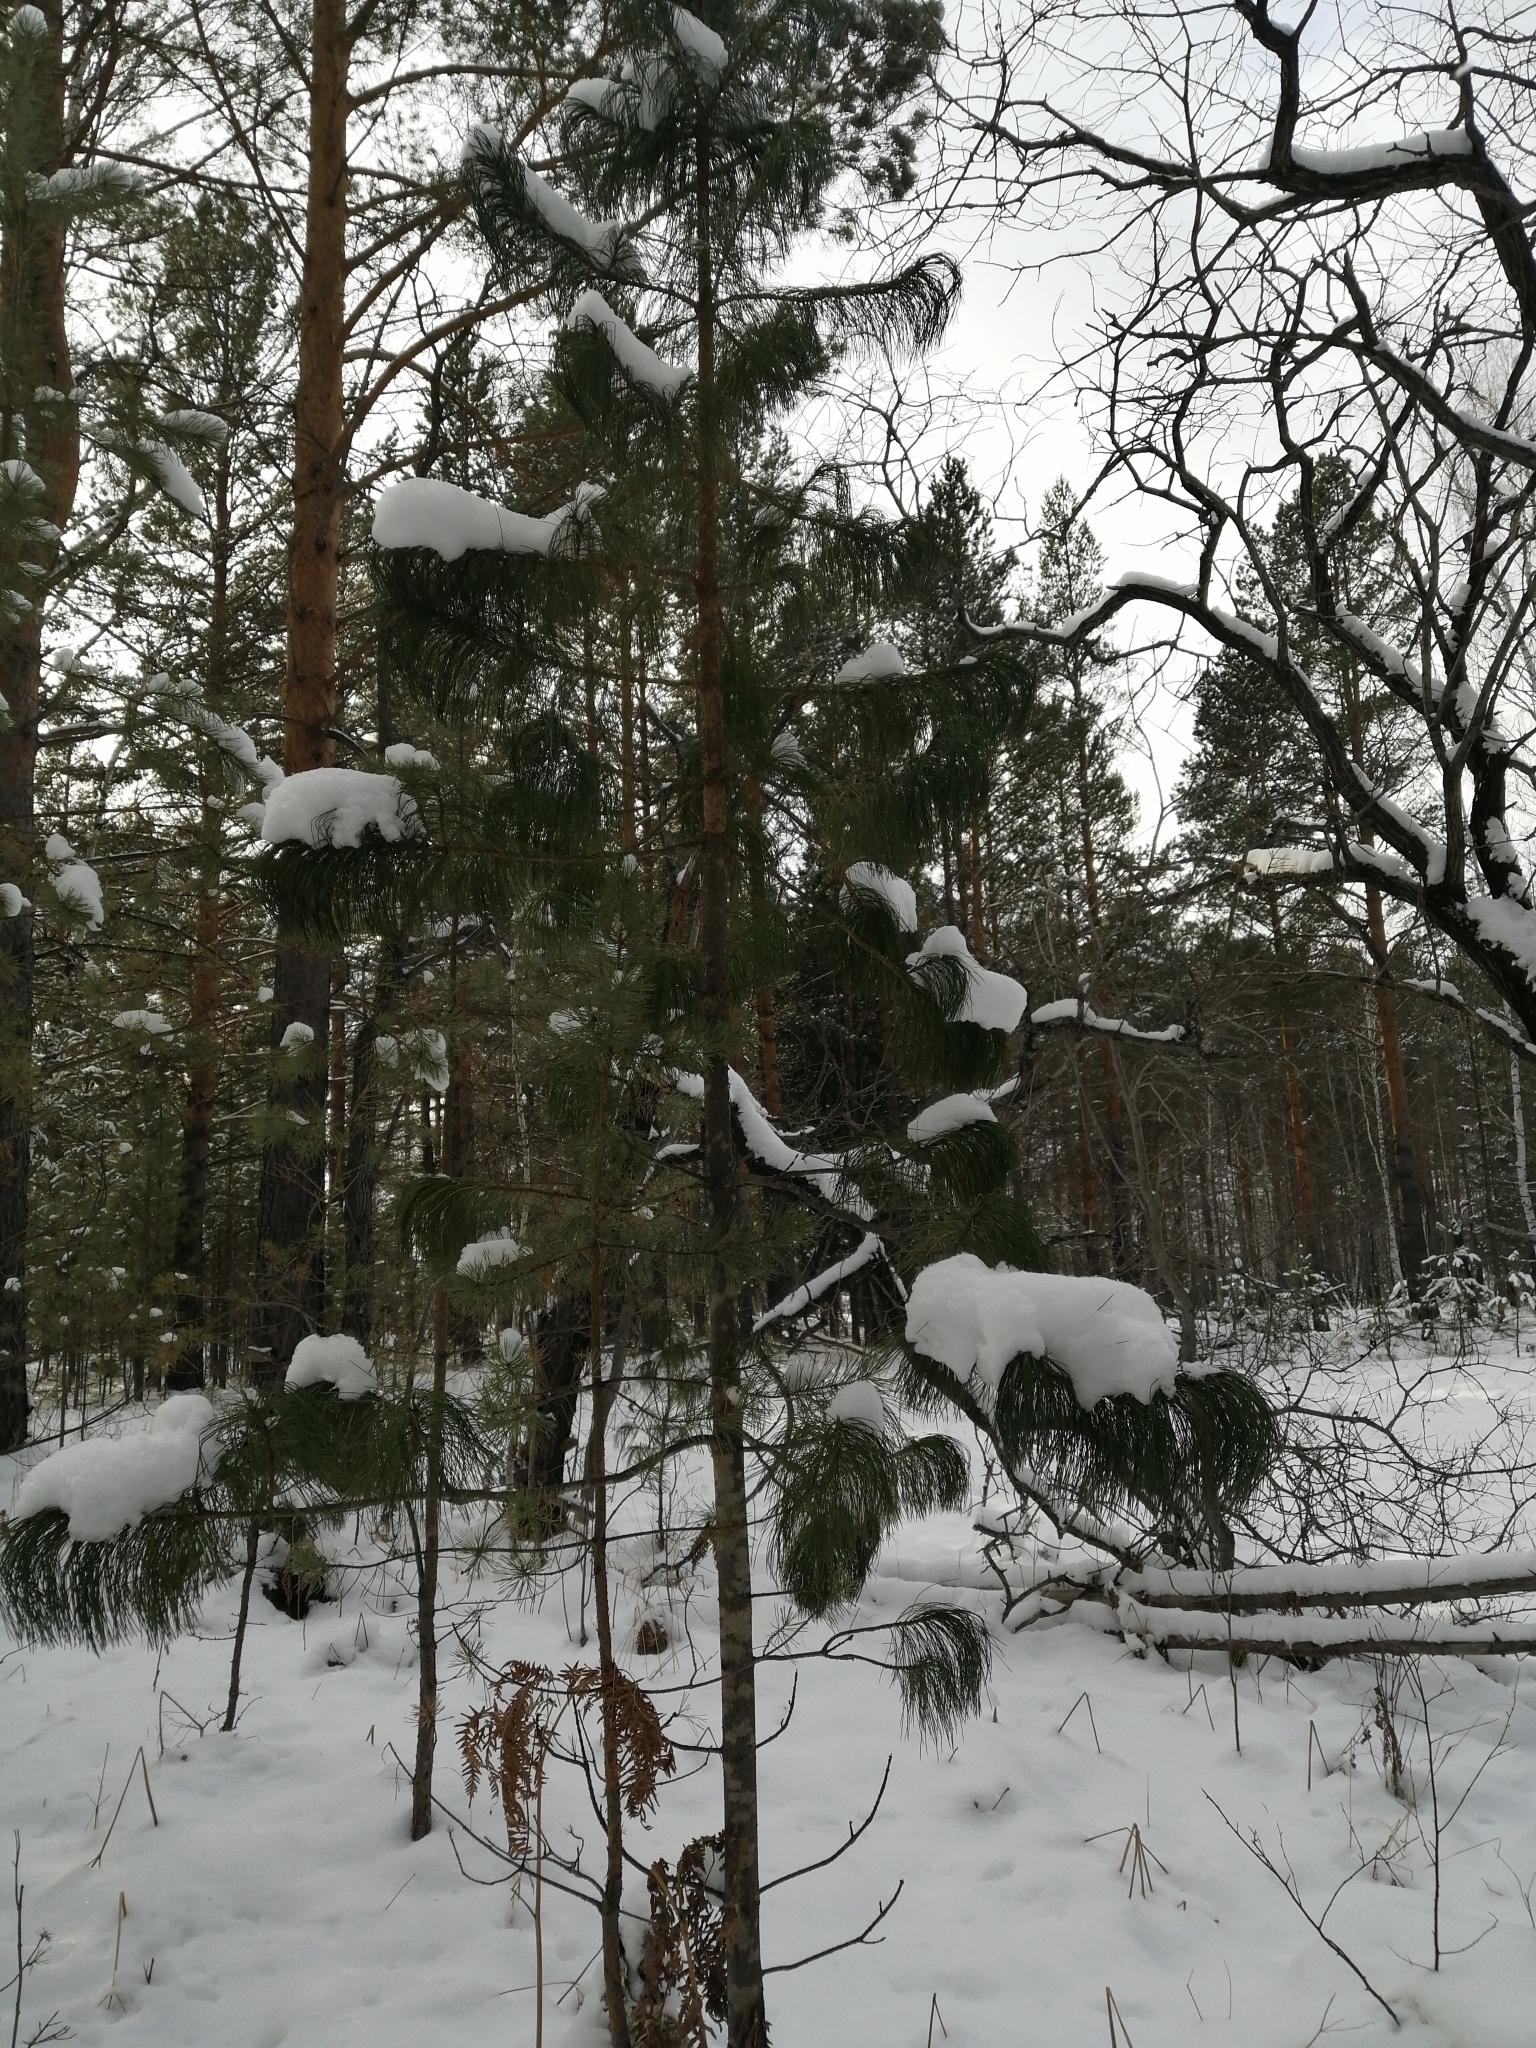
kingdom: Plantae
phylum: Tracheophyta
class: Pinopsida
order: Pinales
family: Pinaceae
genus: Pinus
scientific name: Pinus sibirica
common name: Siberian pine
